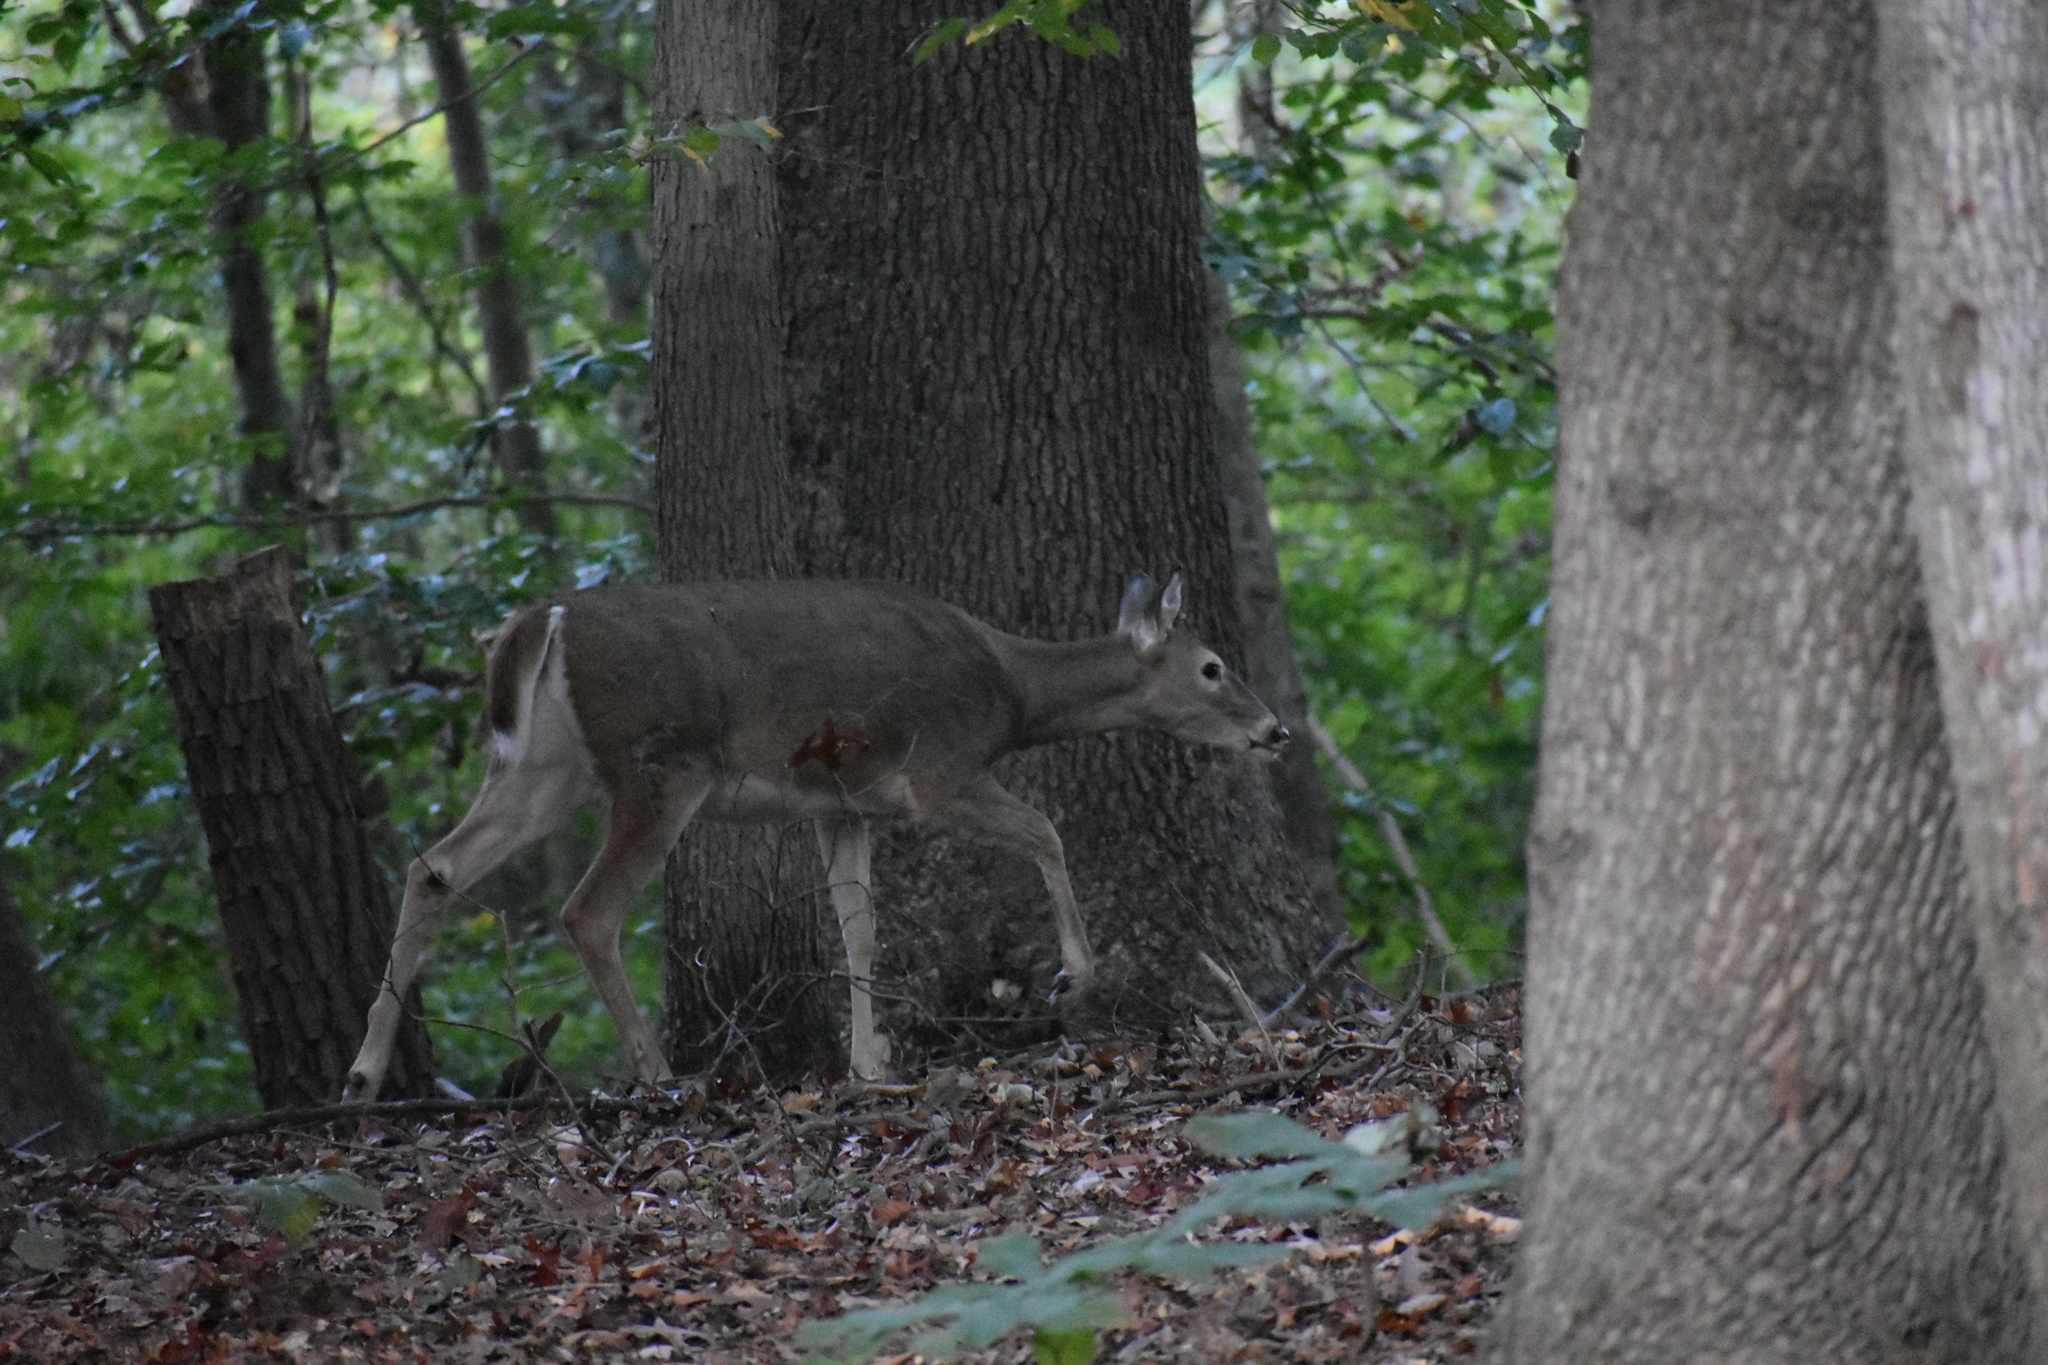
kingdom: Animalia
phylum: Chordata
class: Mammalia
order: Artiodactyla
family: Cervidae
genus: Odocoileus
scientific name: Odocoileus virginianus
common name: White-tailed deer
